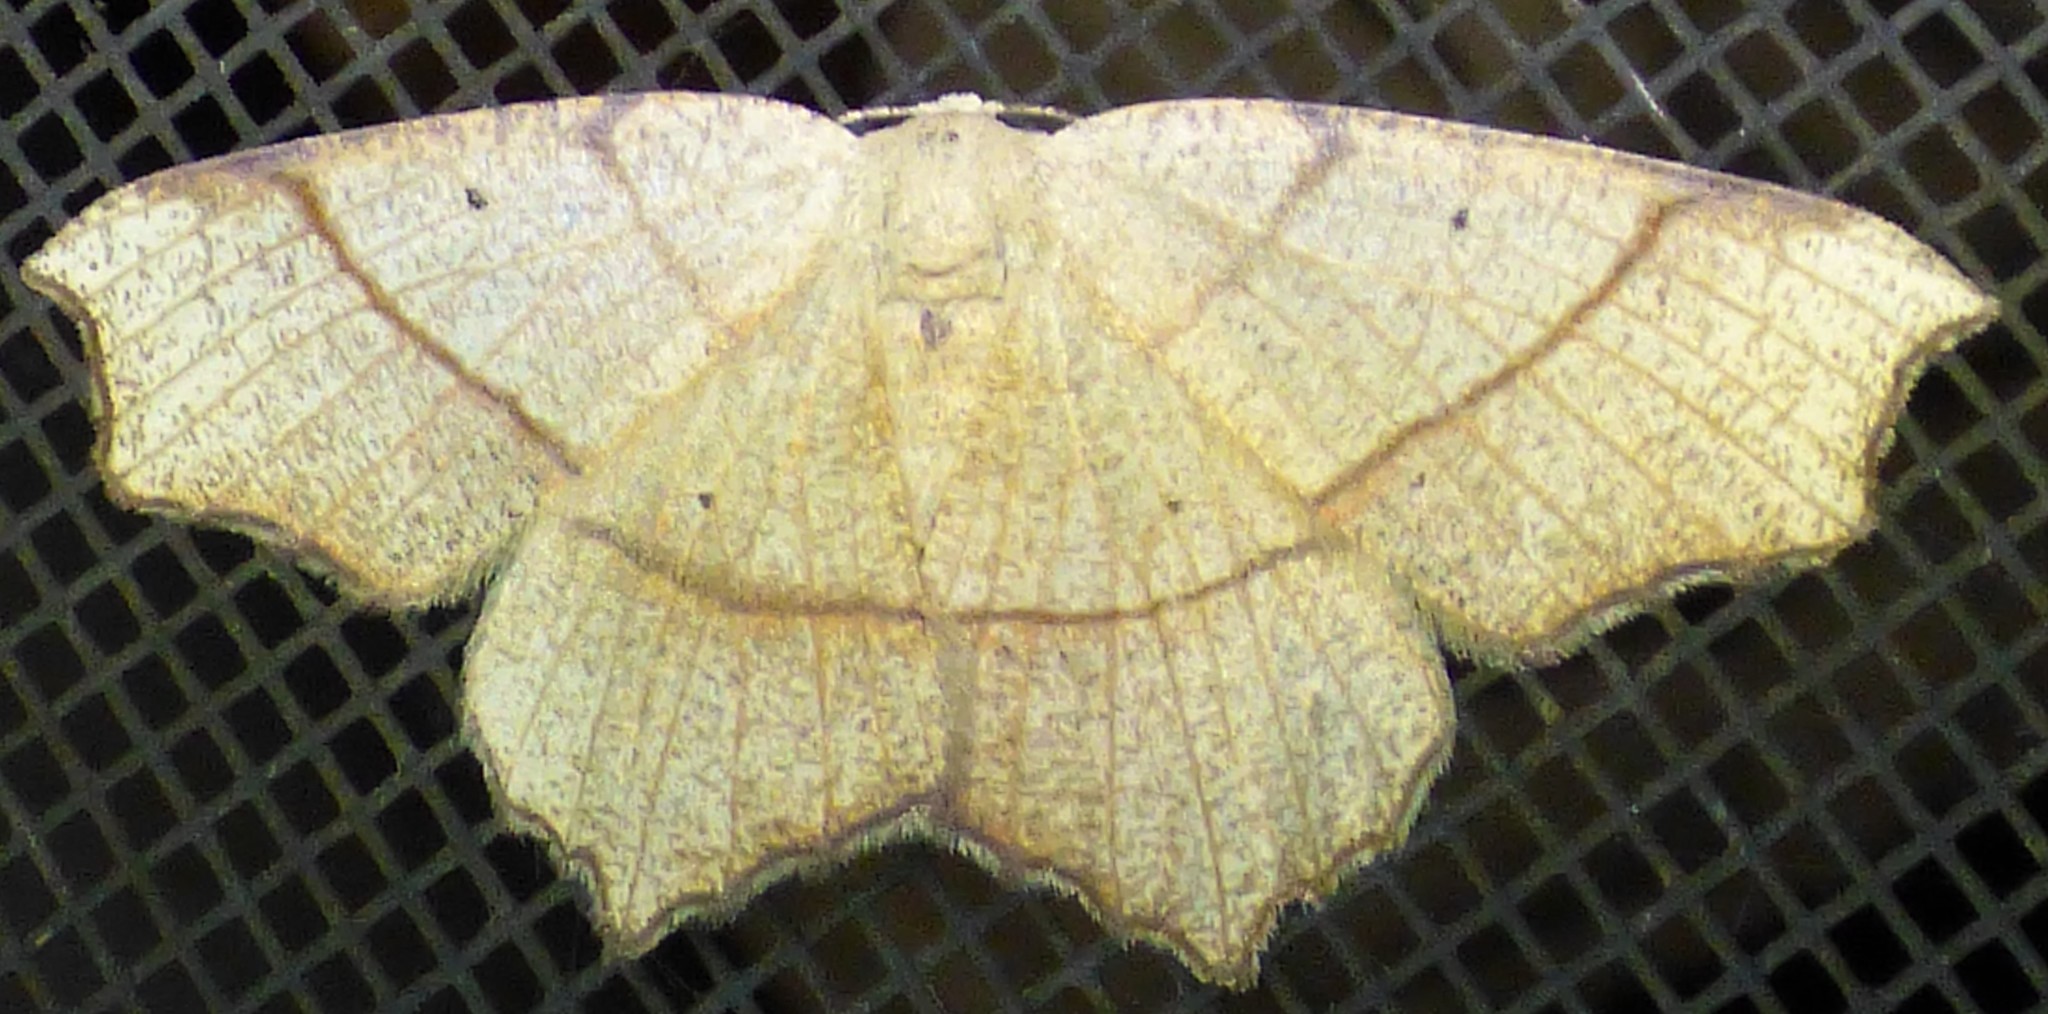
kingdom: Animalia
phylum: Arthropoda
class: Insecta
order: Lepidoptera
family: Geometridae
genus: Besma
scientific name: Besma quercivoraria
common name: Oak besma
